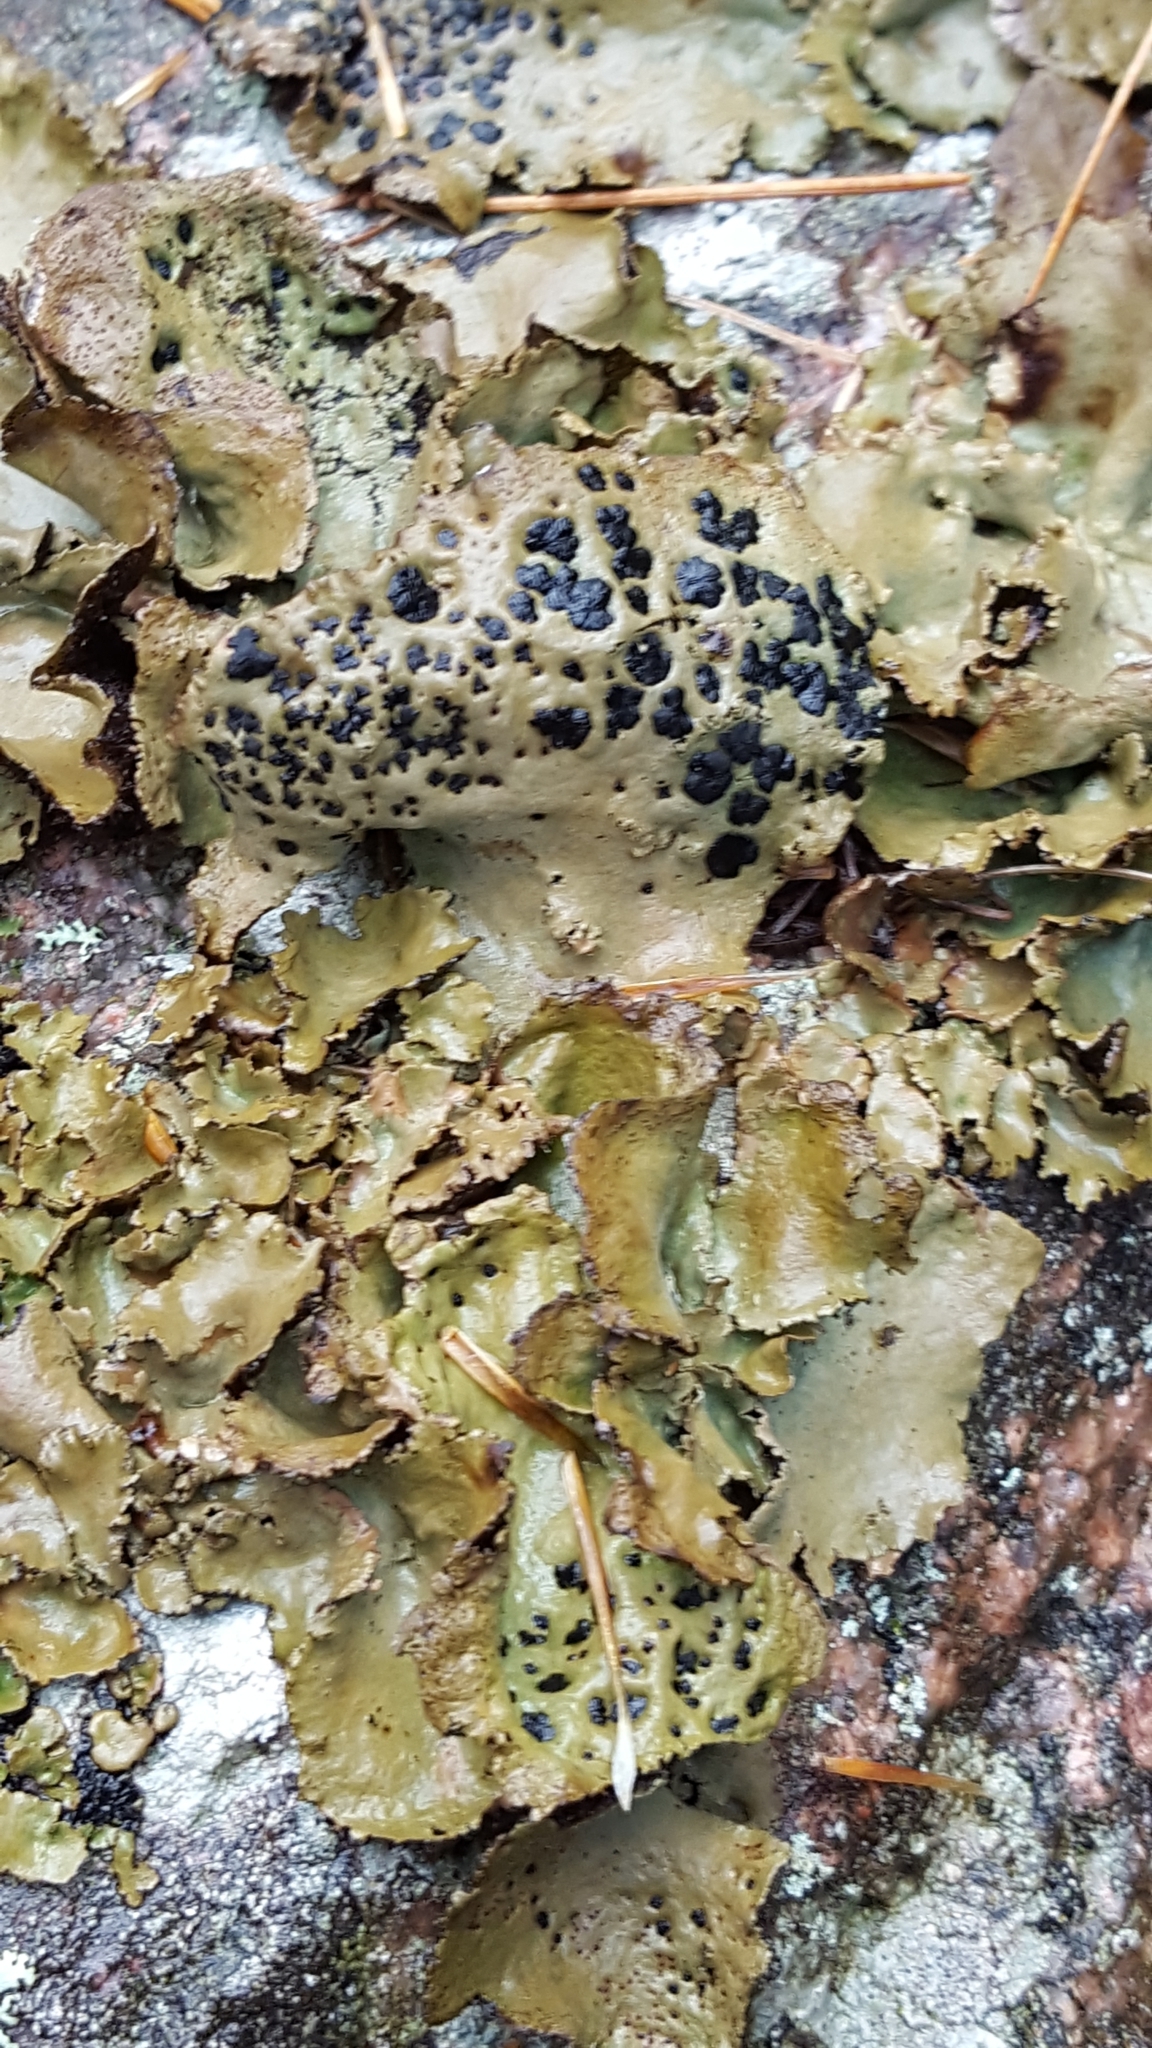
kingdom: Fungi
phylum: Ascomycota
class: Lecanoromycetes
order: Umbilicariales
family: Umbilicariaceae
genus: Umbilicaria
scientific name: Umbilicaria muhlenbergii
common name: Lesser rocktripe
